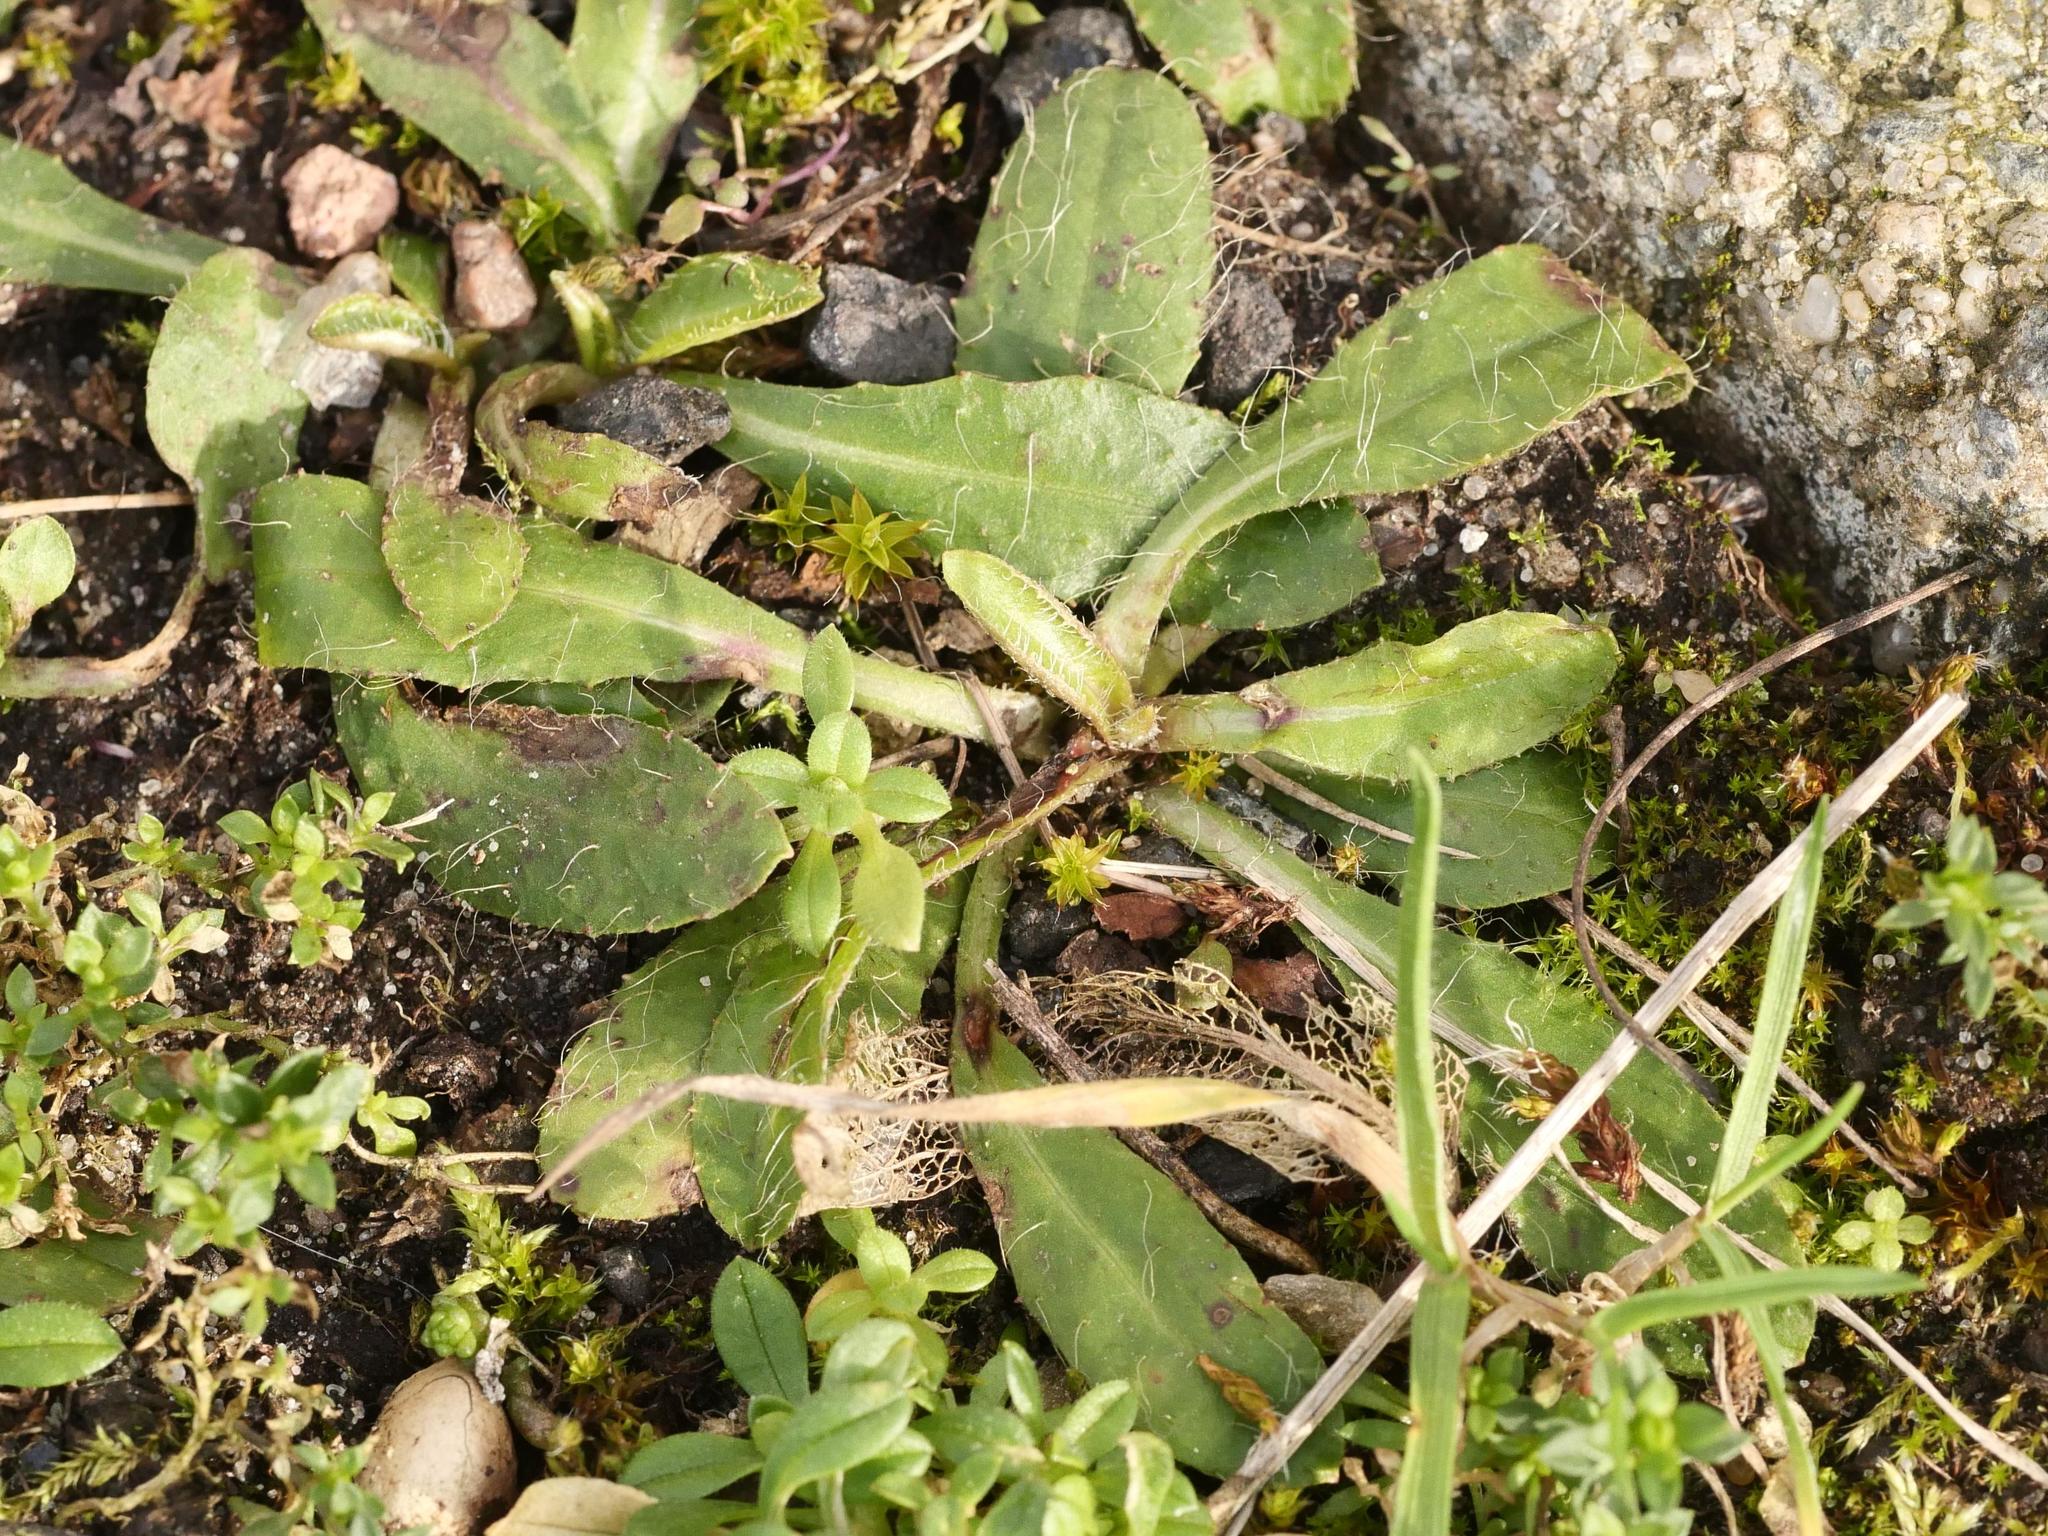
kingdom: Plantae
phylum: Tracheophyta
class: Magnoliopsida
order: Asterales
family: Asteraceae
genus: Pilosella
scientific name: Pilosella officinarum
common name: Mouse-ear hawkweed
